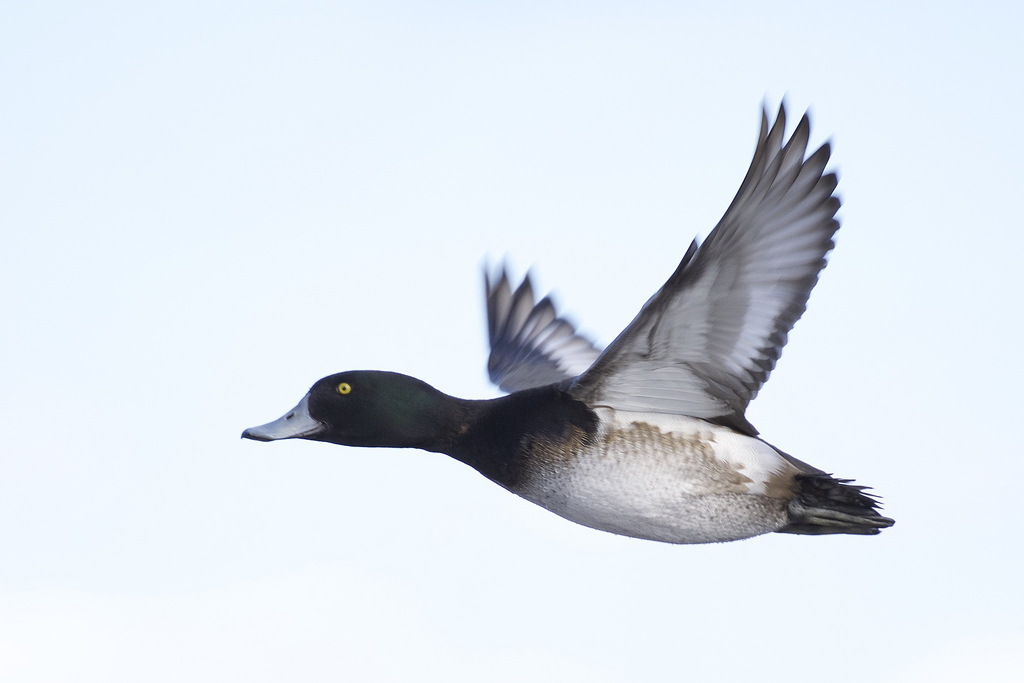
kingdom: Animalia
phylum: Chordata
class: Aves
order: Anseriformes
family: Anatidae
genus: Aythya
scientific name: Aythya marila
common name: Greater scaup
